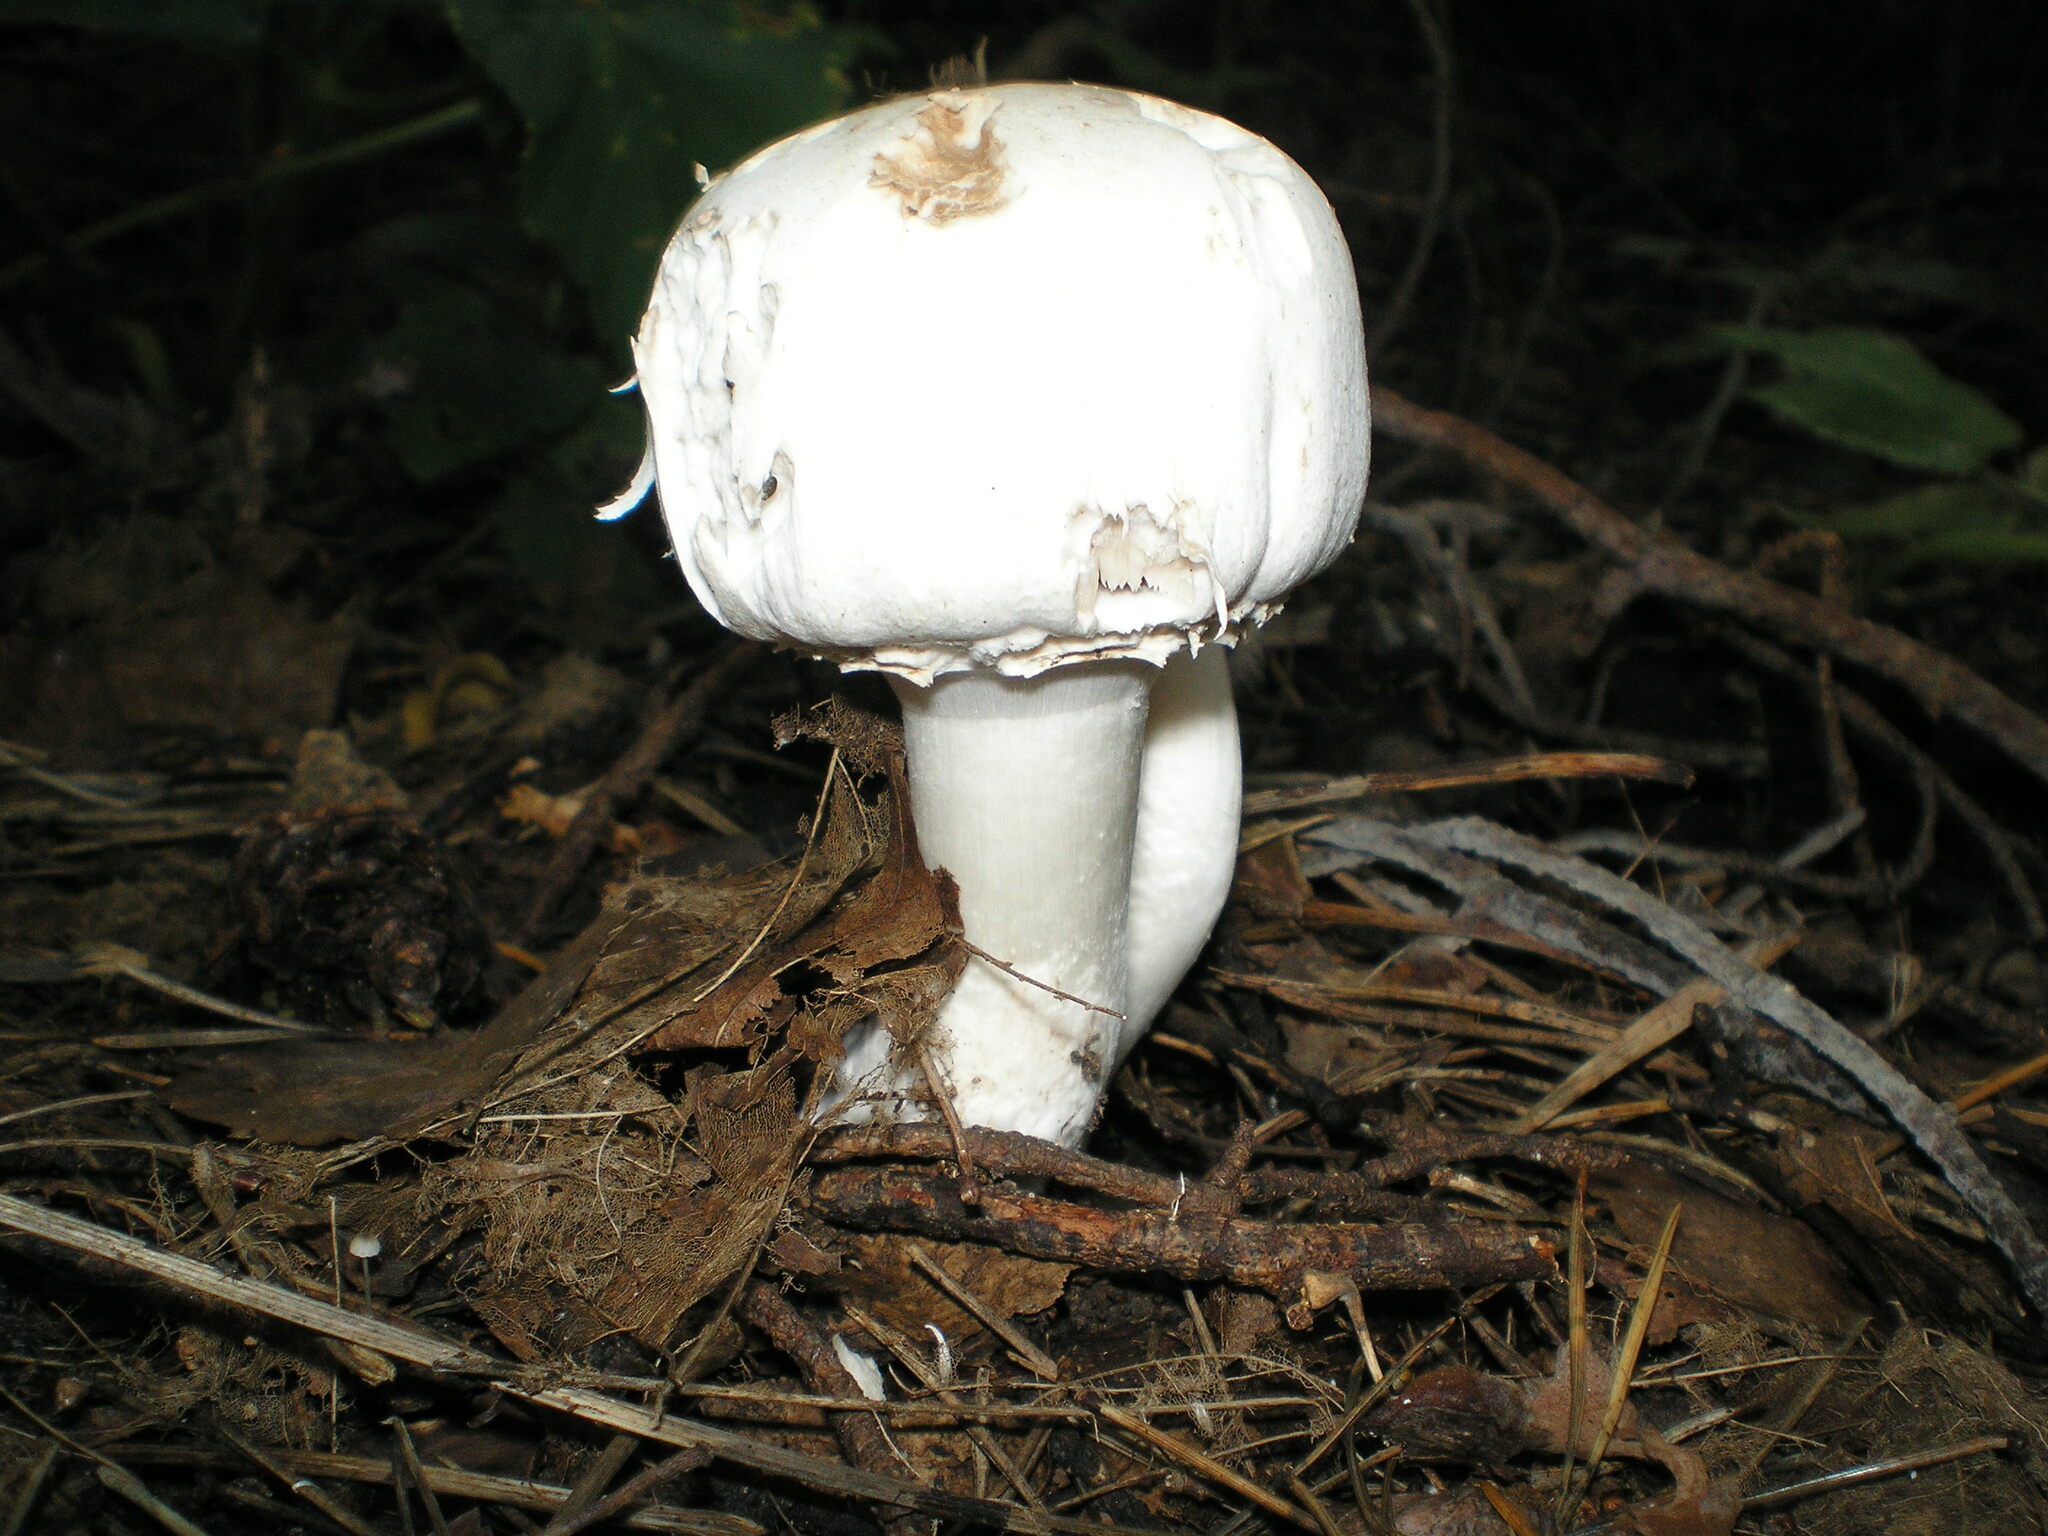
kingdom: Fungi
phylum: Basidiomycota
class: Agaricomycetes
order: Agaricales
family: Agaricaceae
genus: Agaricus
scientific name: Agaricus sylvicola
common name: Wood mushroom
